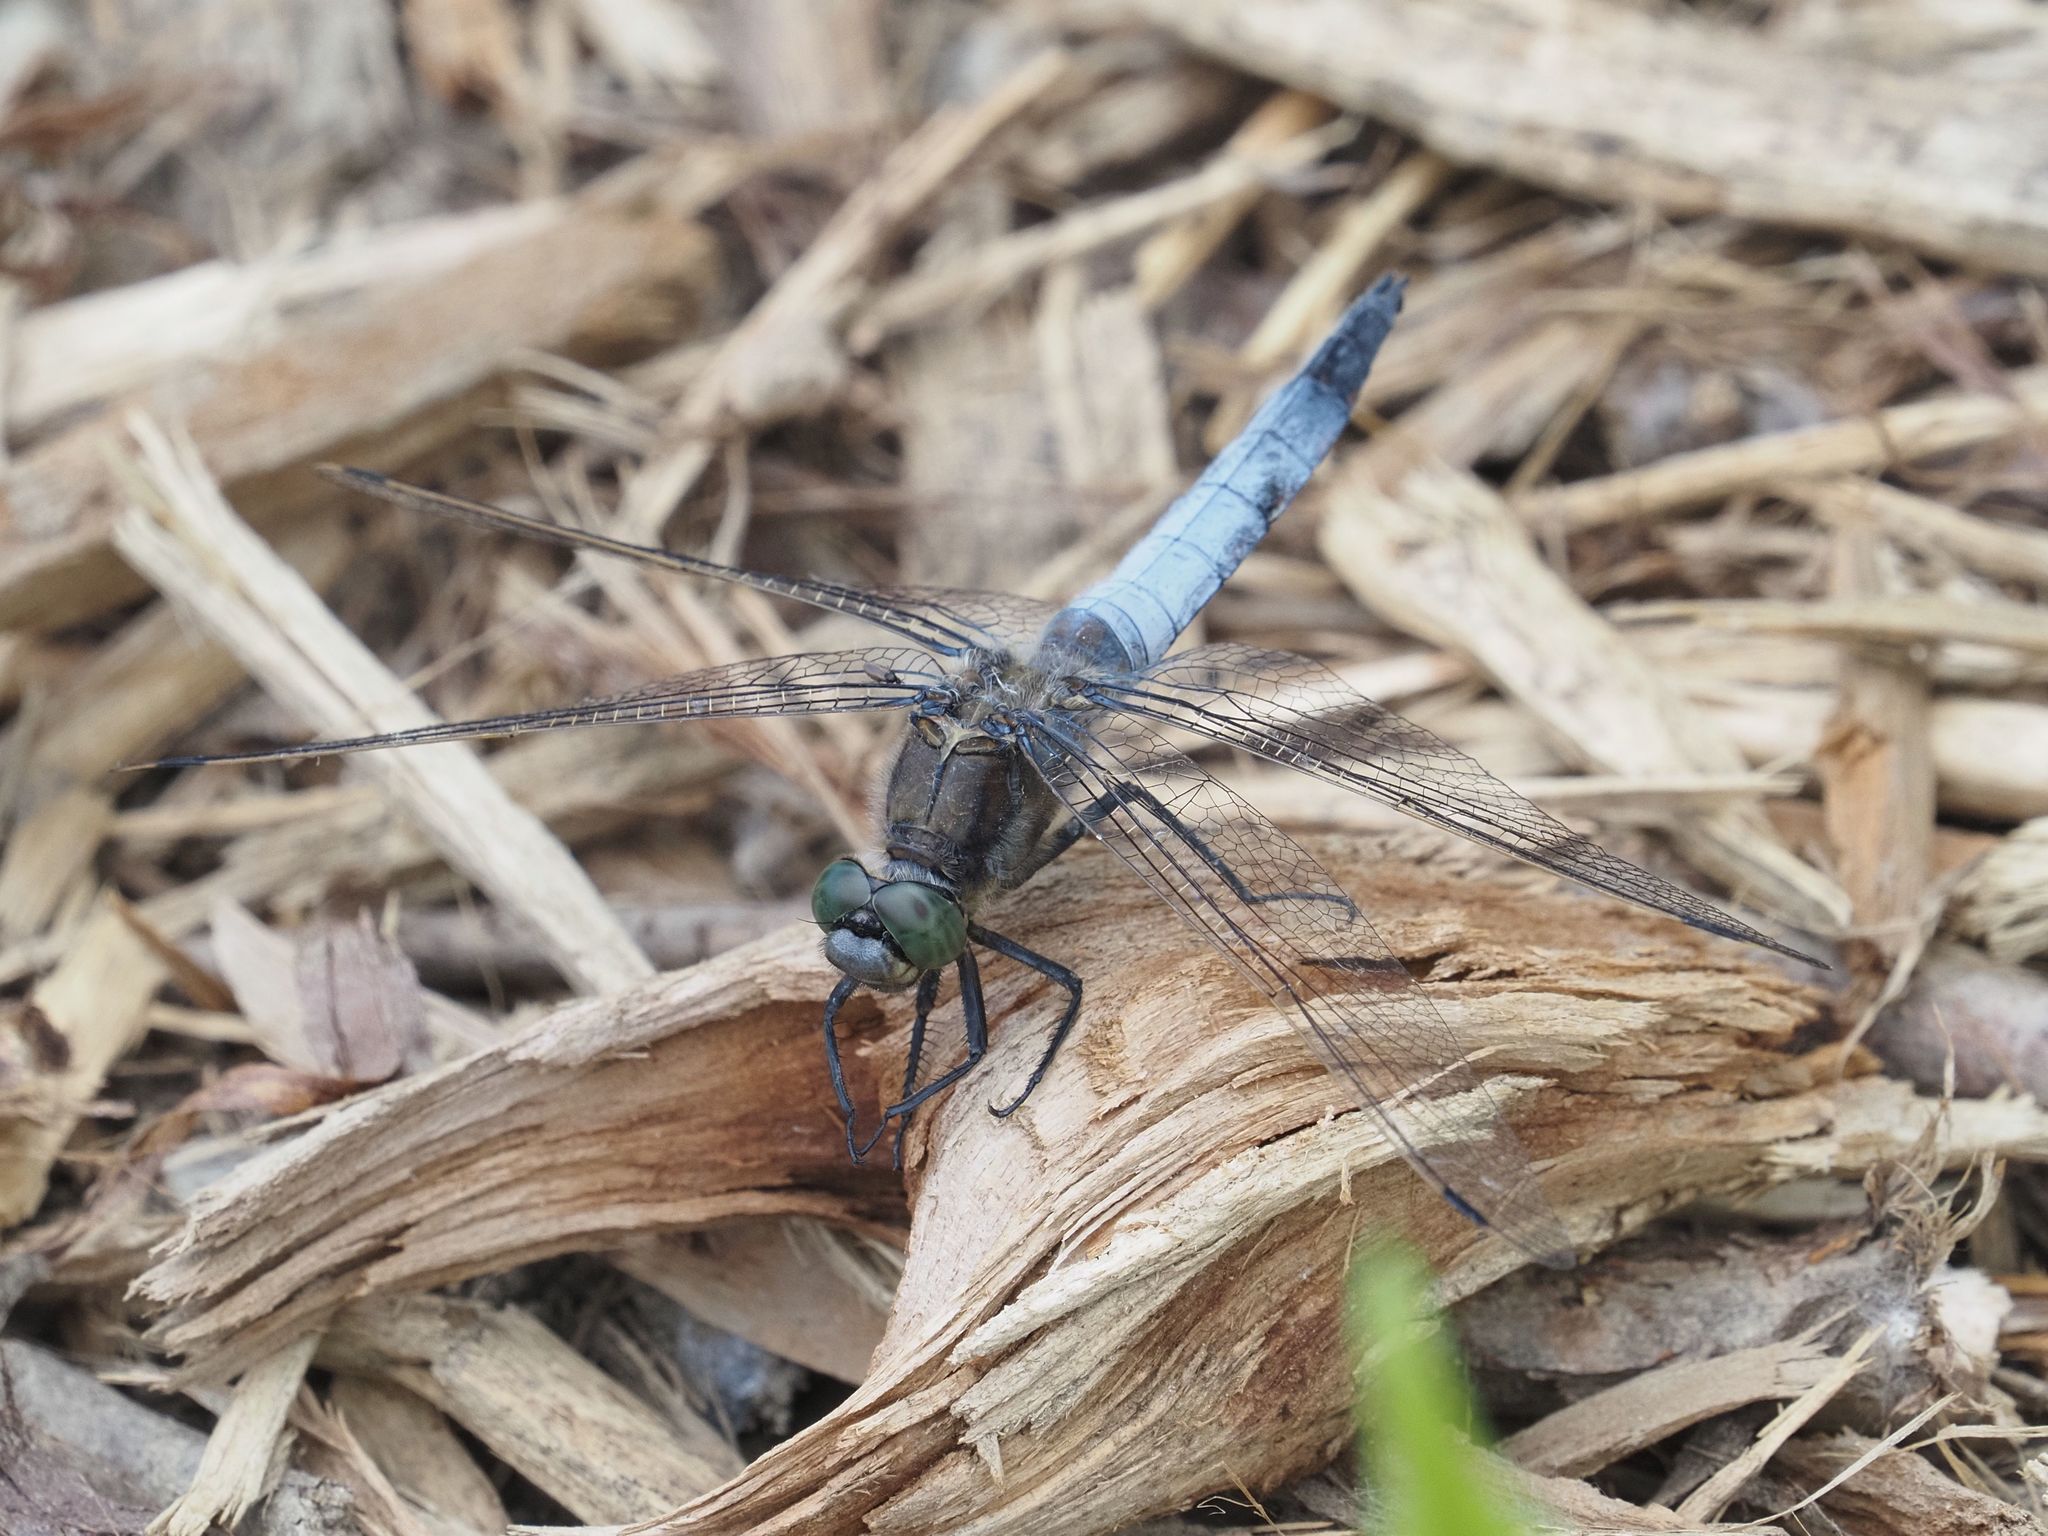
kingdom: Animalia
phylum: Arthropoda
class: Insecta
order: Odonata
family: Libellulidae
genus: Orthetrum
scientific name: Orthetrum cancellatum
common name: Black-tailed skimmer
